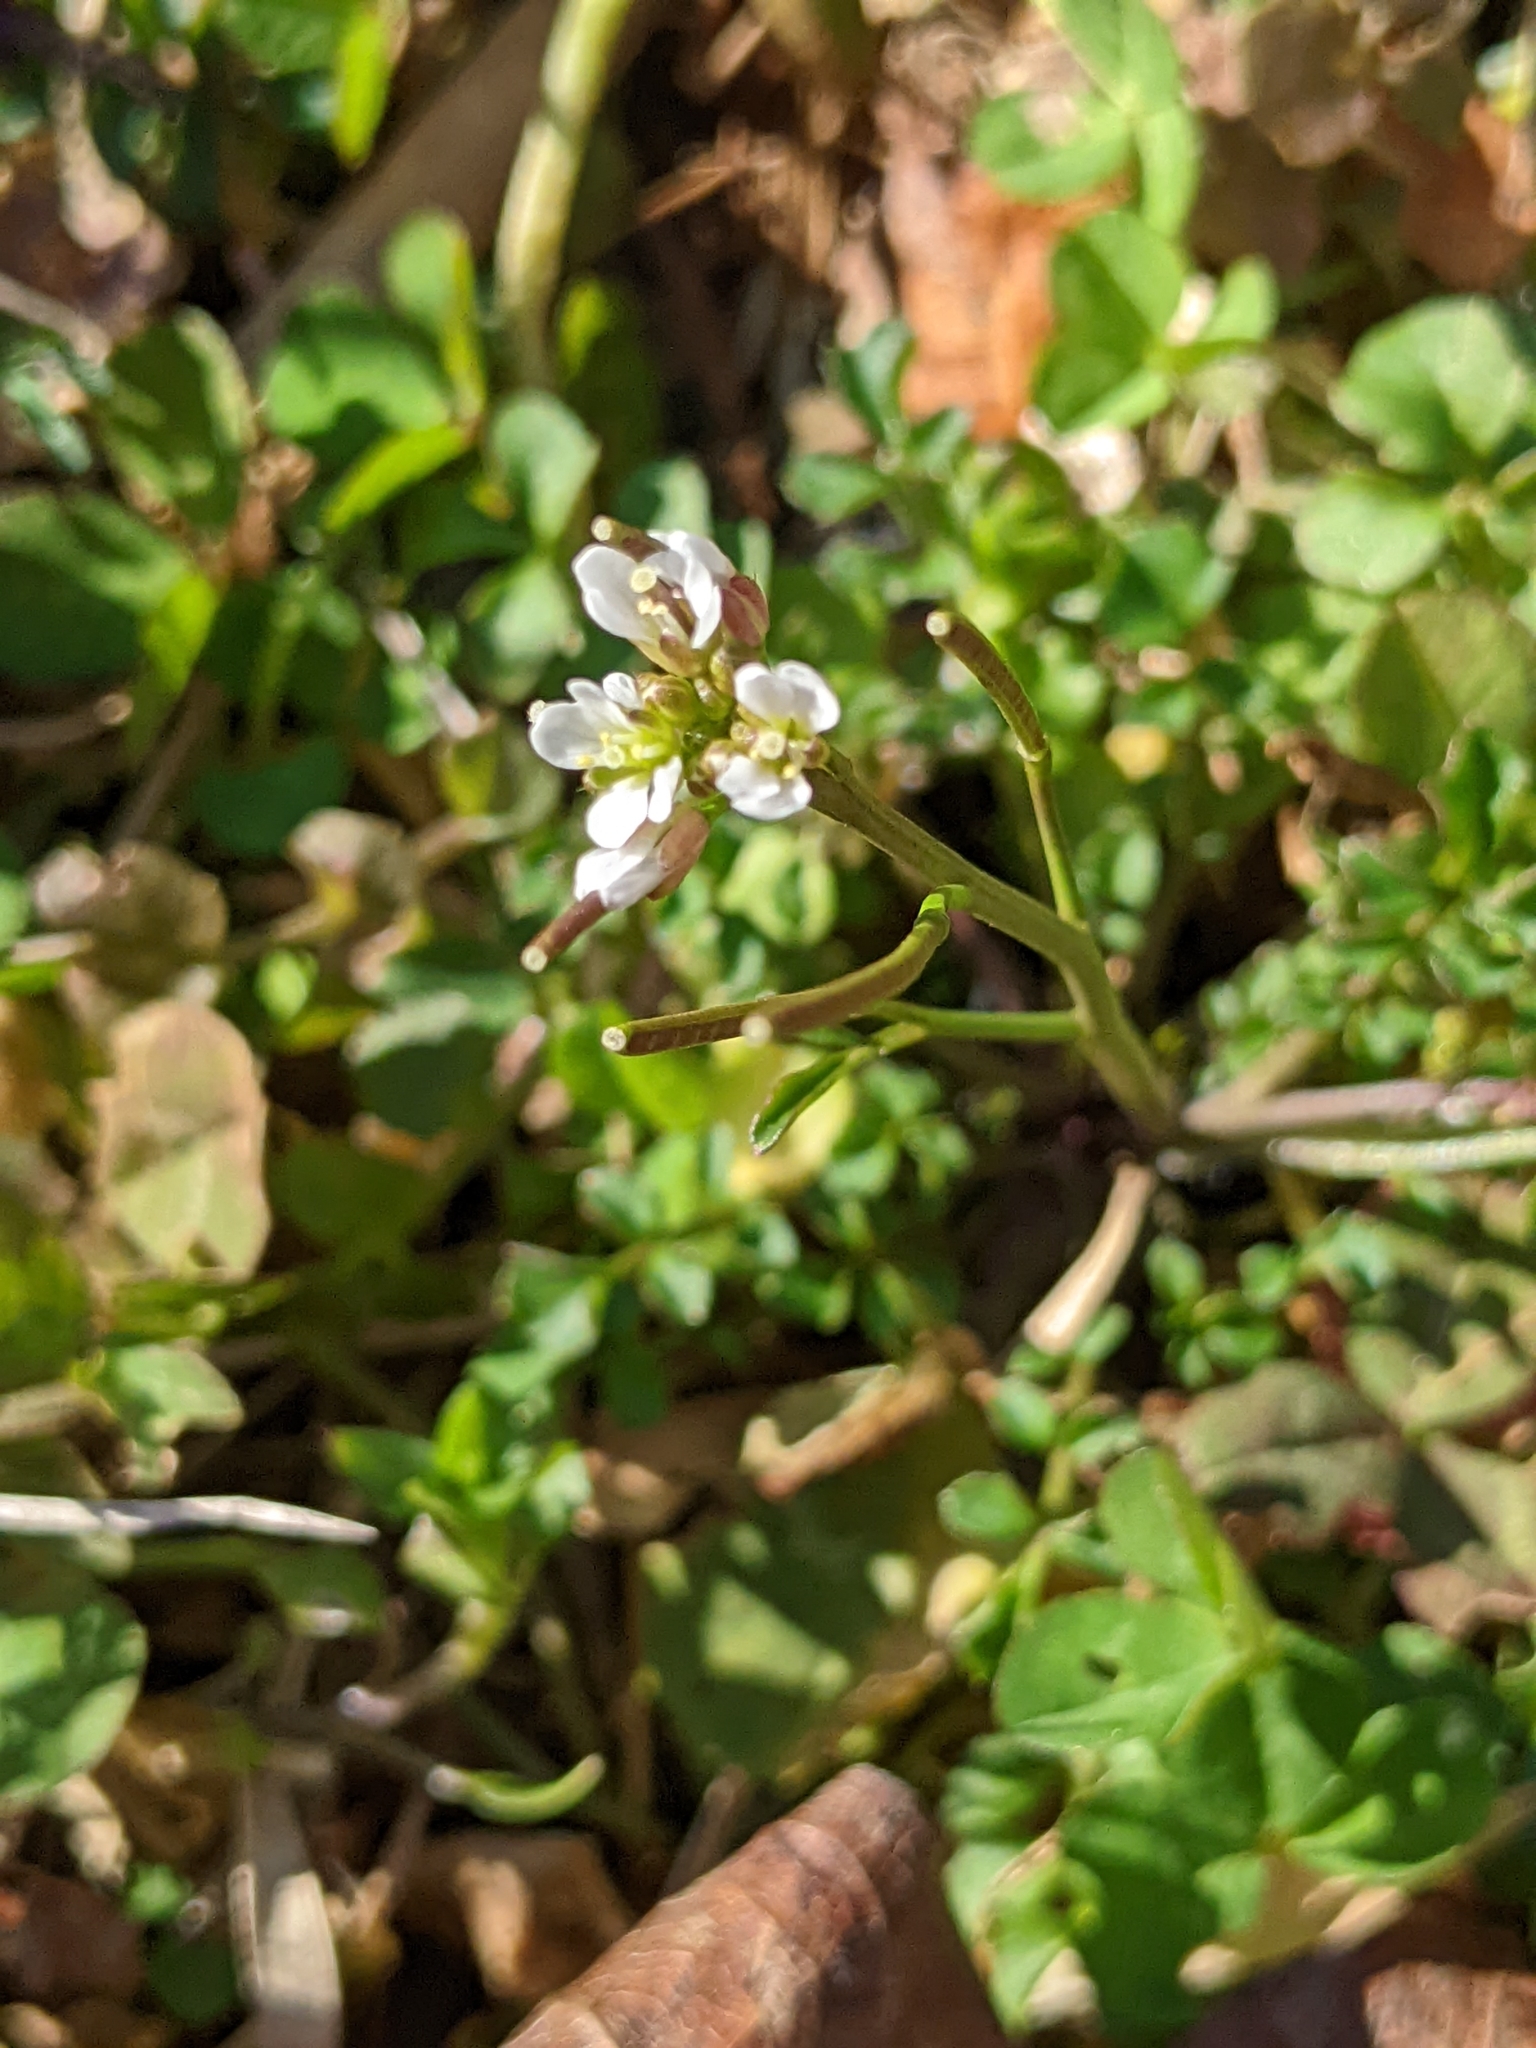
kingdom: Plantae
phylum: Tracheophyta
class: Magnoliopsida
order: Brassicales
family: Brassicaceae
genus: Cardamine
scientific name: Cardamine hirsuta
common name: Hairy bittercress
